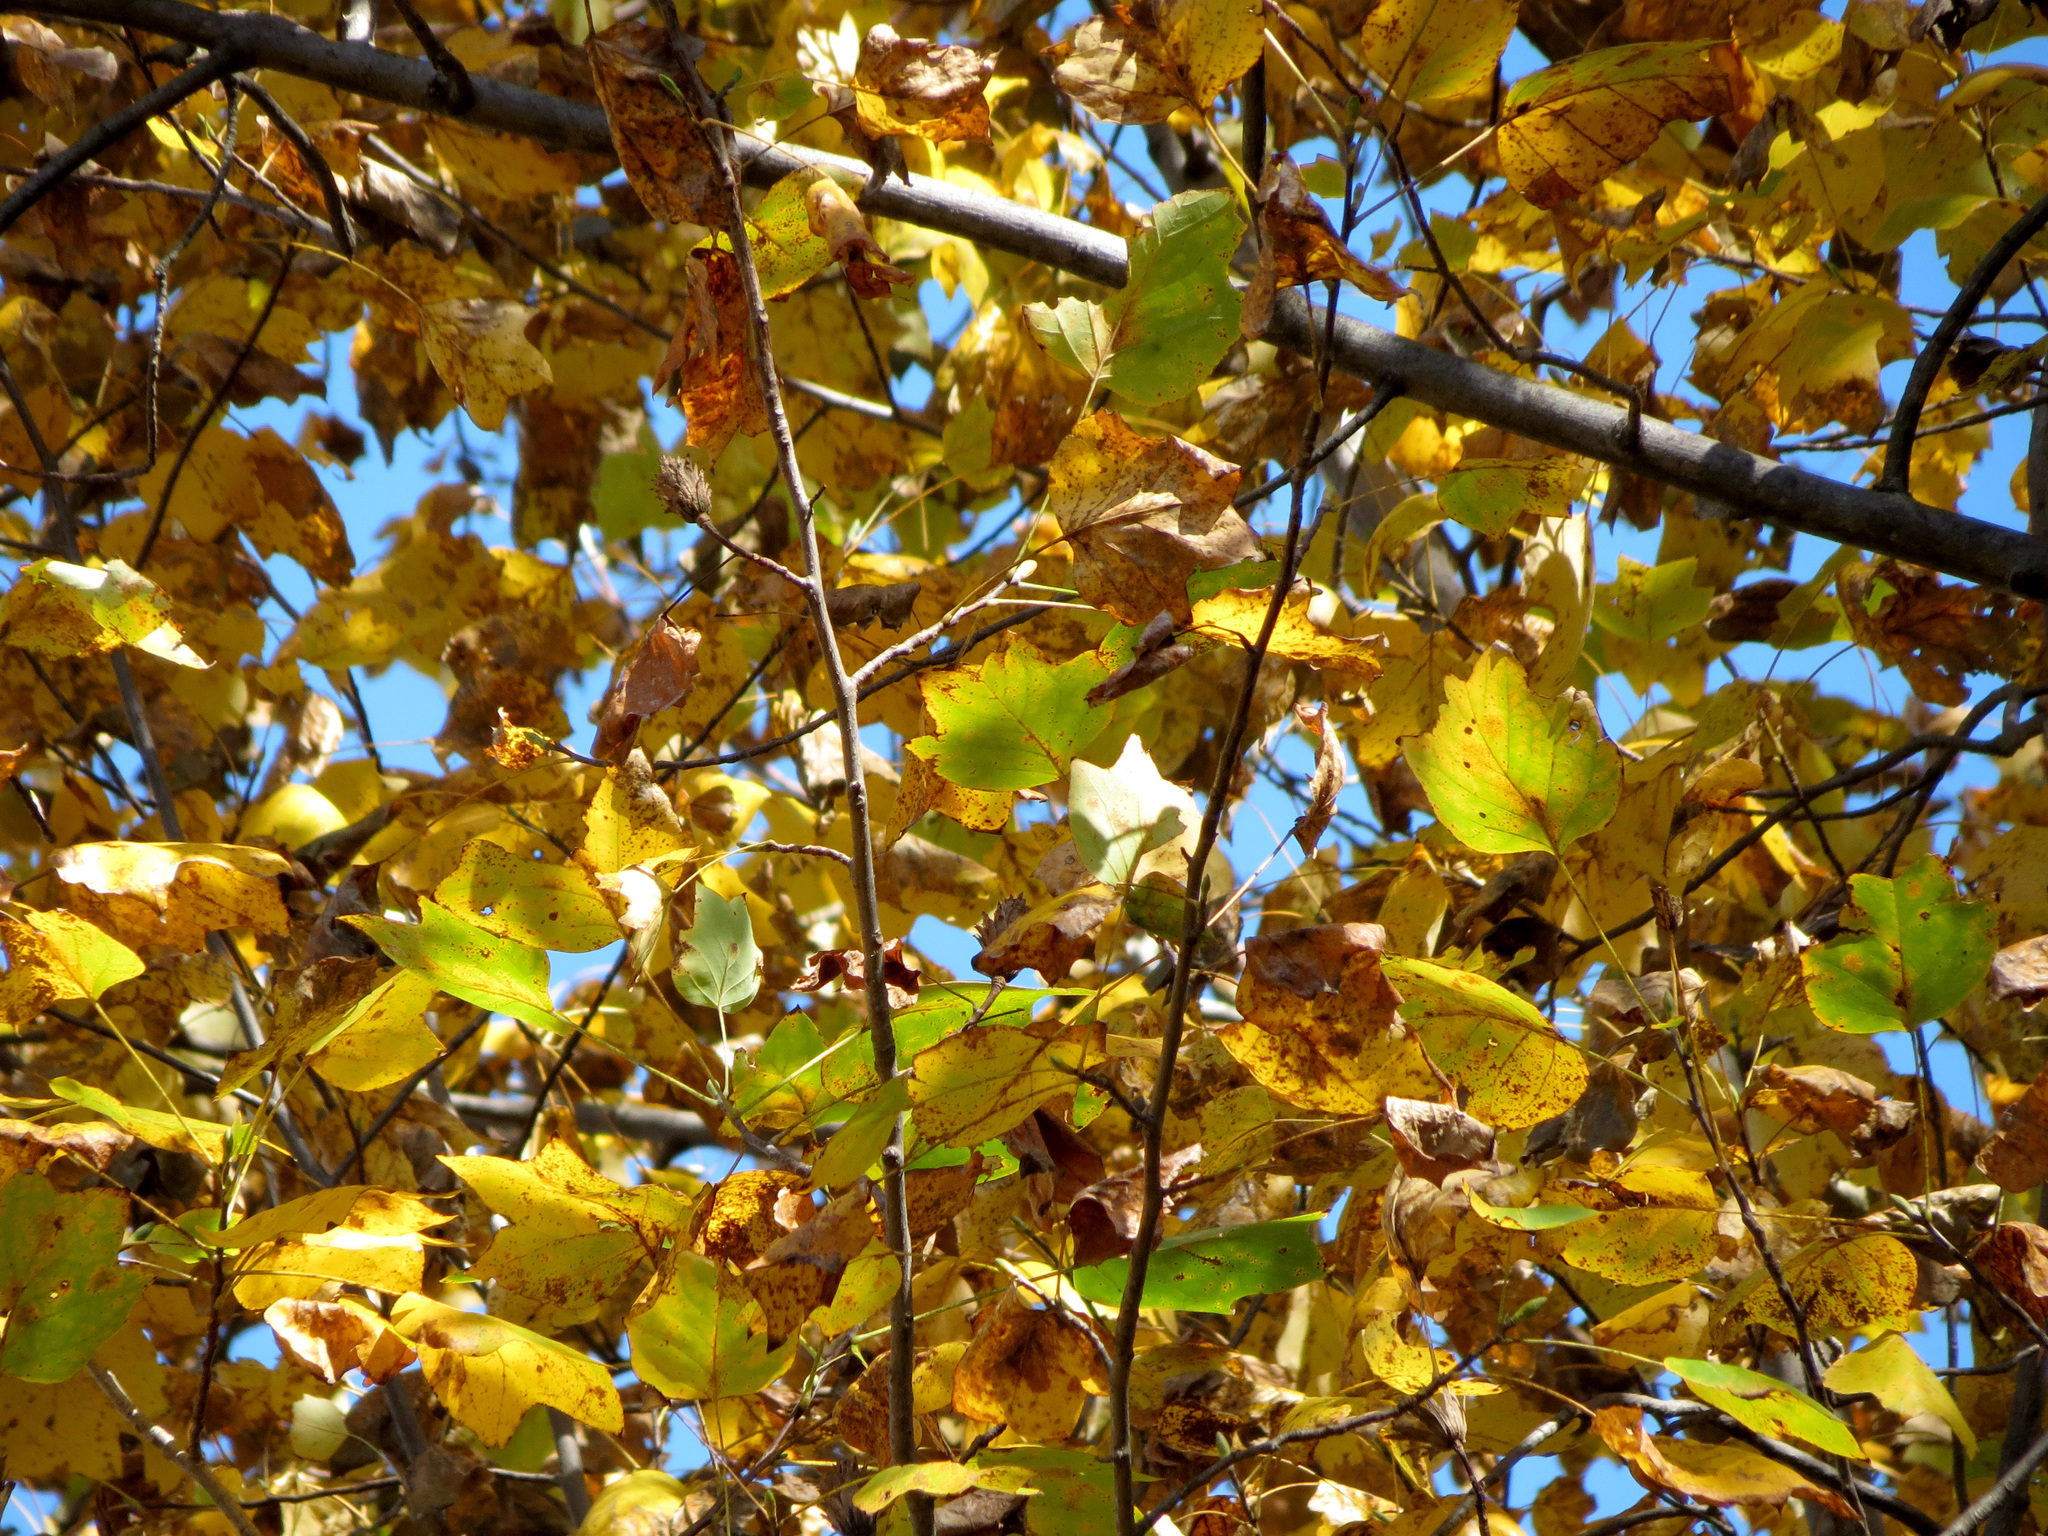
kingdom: Plantae
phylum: Tracheophyta
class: Magnoliopsida
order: Magnoliales
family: Magnoliaceae
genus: Liriodendron
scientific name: Liriodendron tulipifera
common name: Tulip tree
